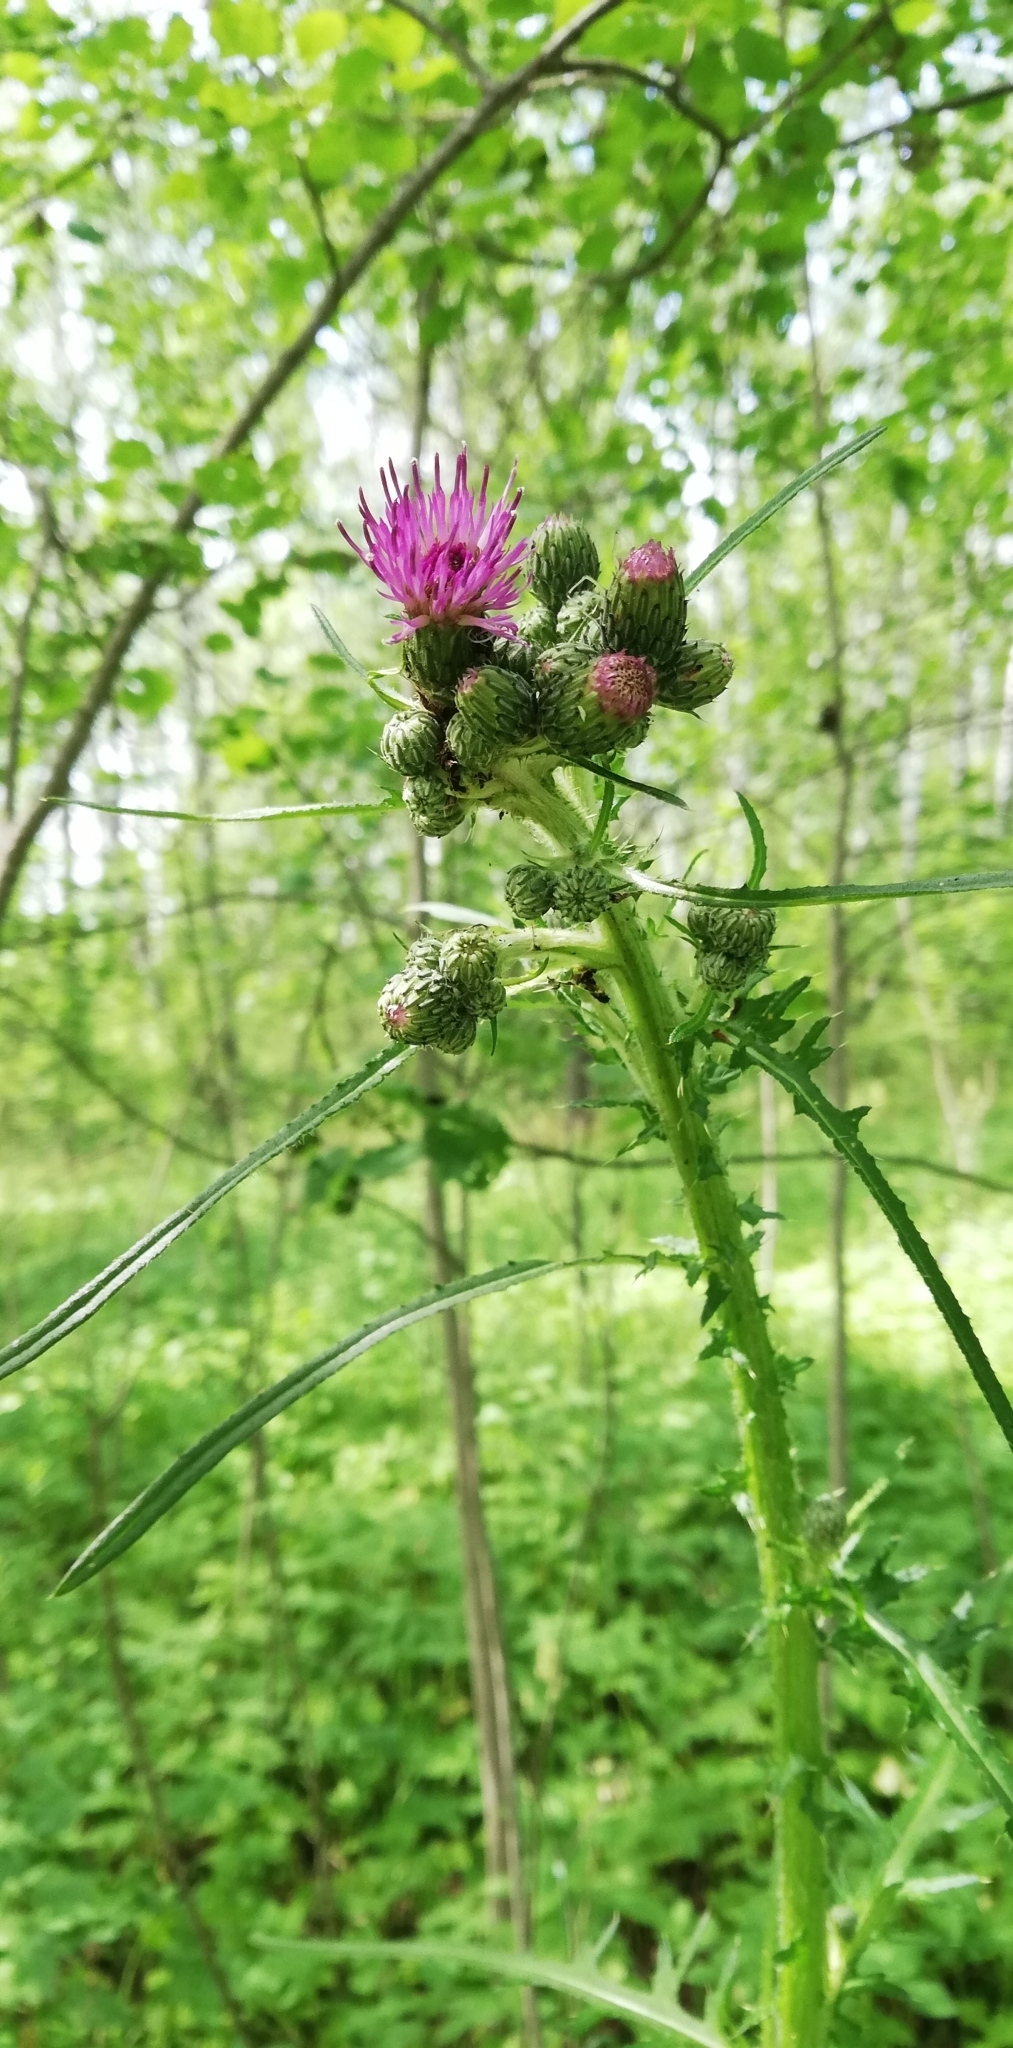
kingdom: Plantae
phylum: Tracheophyta
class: Magnoliopsida
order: Asterales
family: Asteraceae
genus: Cirsium
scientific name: Cirsium palustre
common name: Marsh thistle
